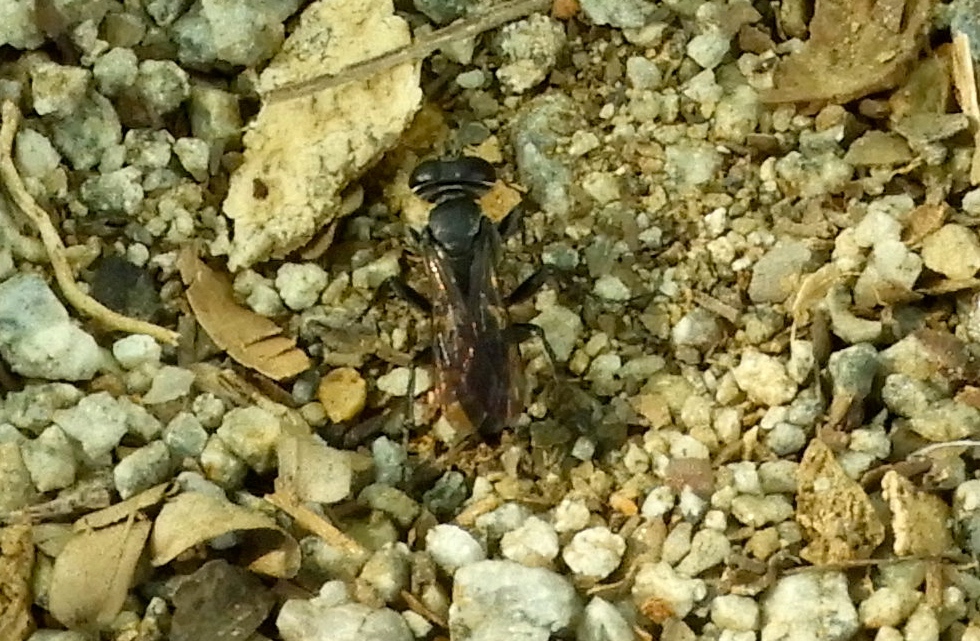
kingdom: Animalia
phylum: Arthropoda
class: Insecta
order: Hymenoptera
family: Crabronidae
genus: Liris
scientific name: Liris
